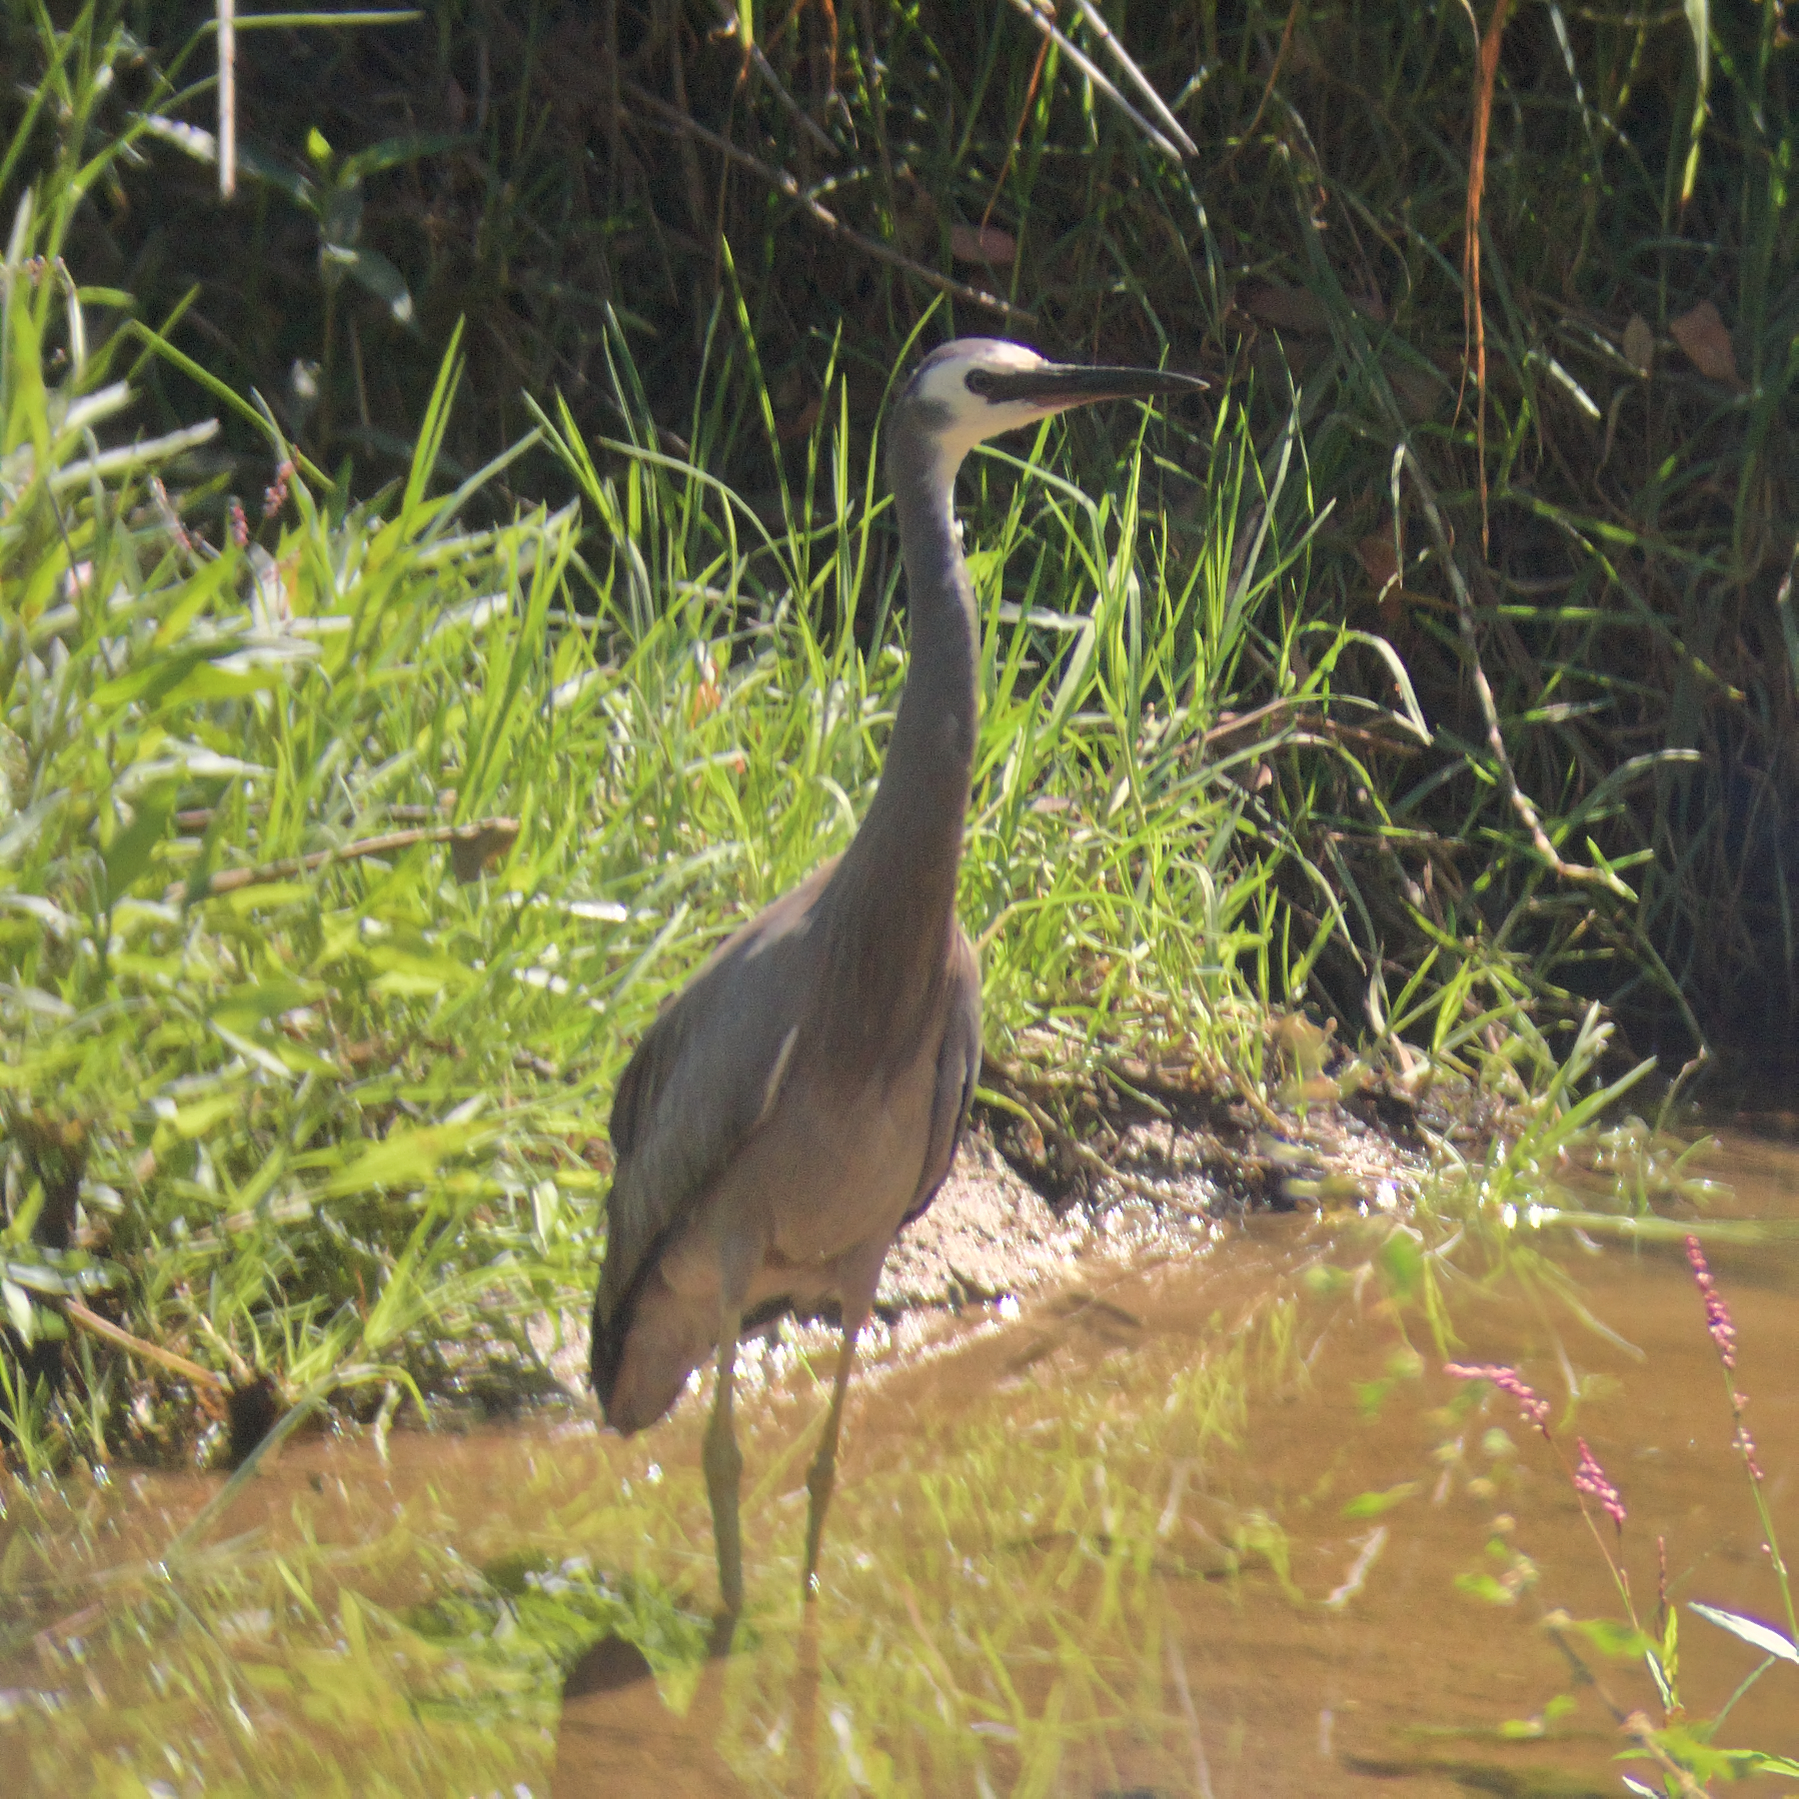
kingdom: Animalia
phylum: Chordata
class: Aves
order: Pelecaniformes
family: Ardeidae
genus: Egretta
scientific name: Egretta novaehollandiae
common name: White-faced heron
